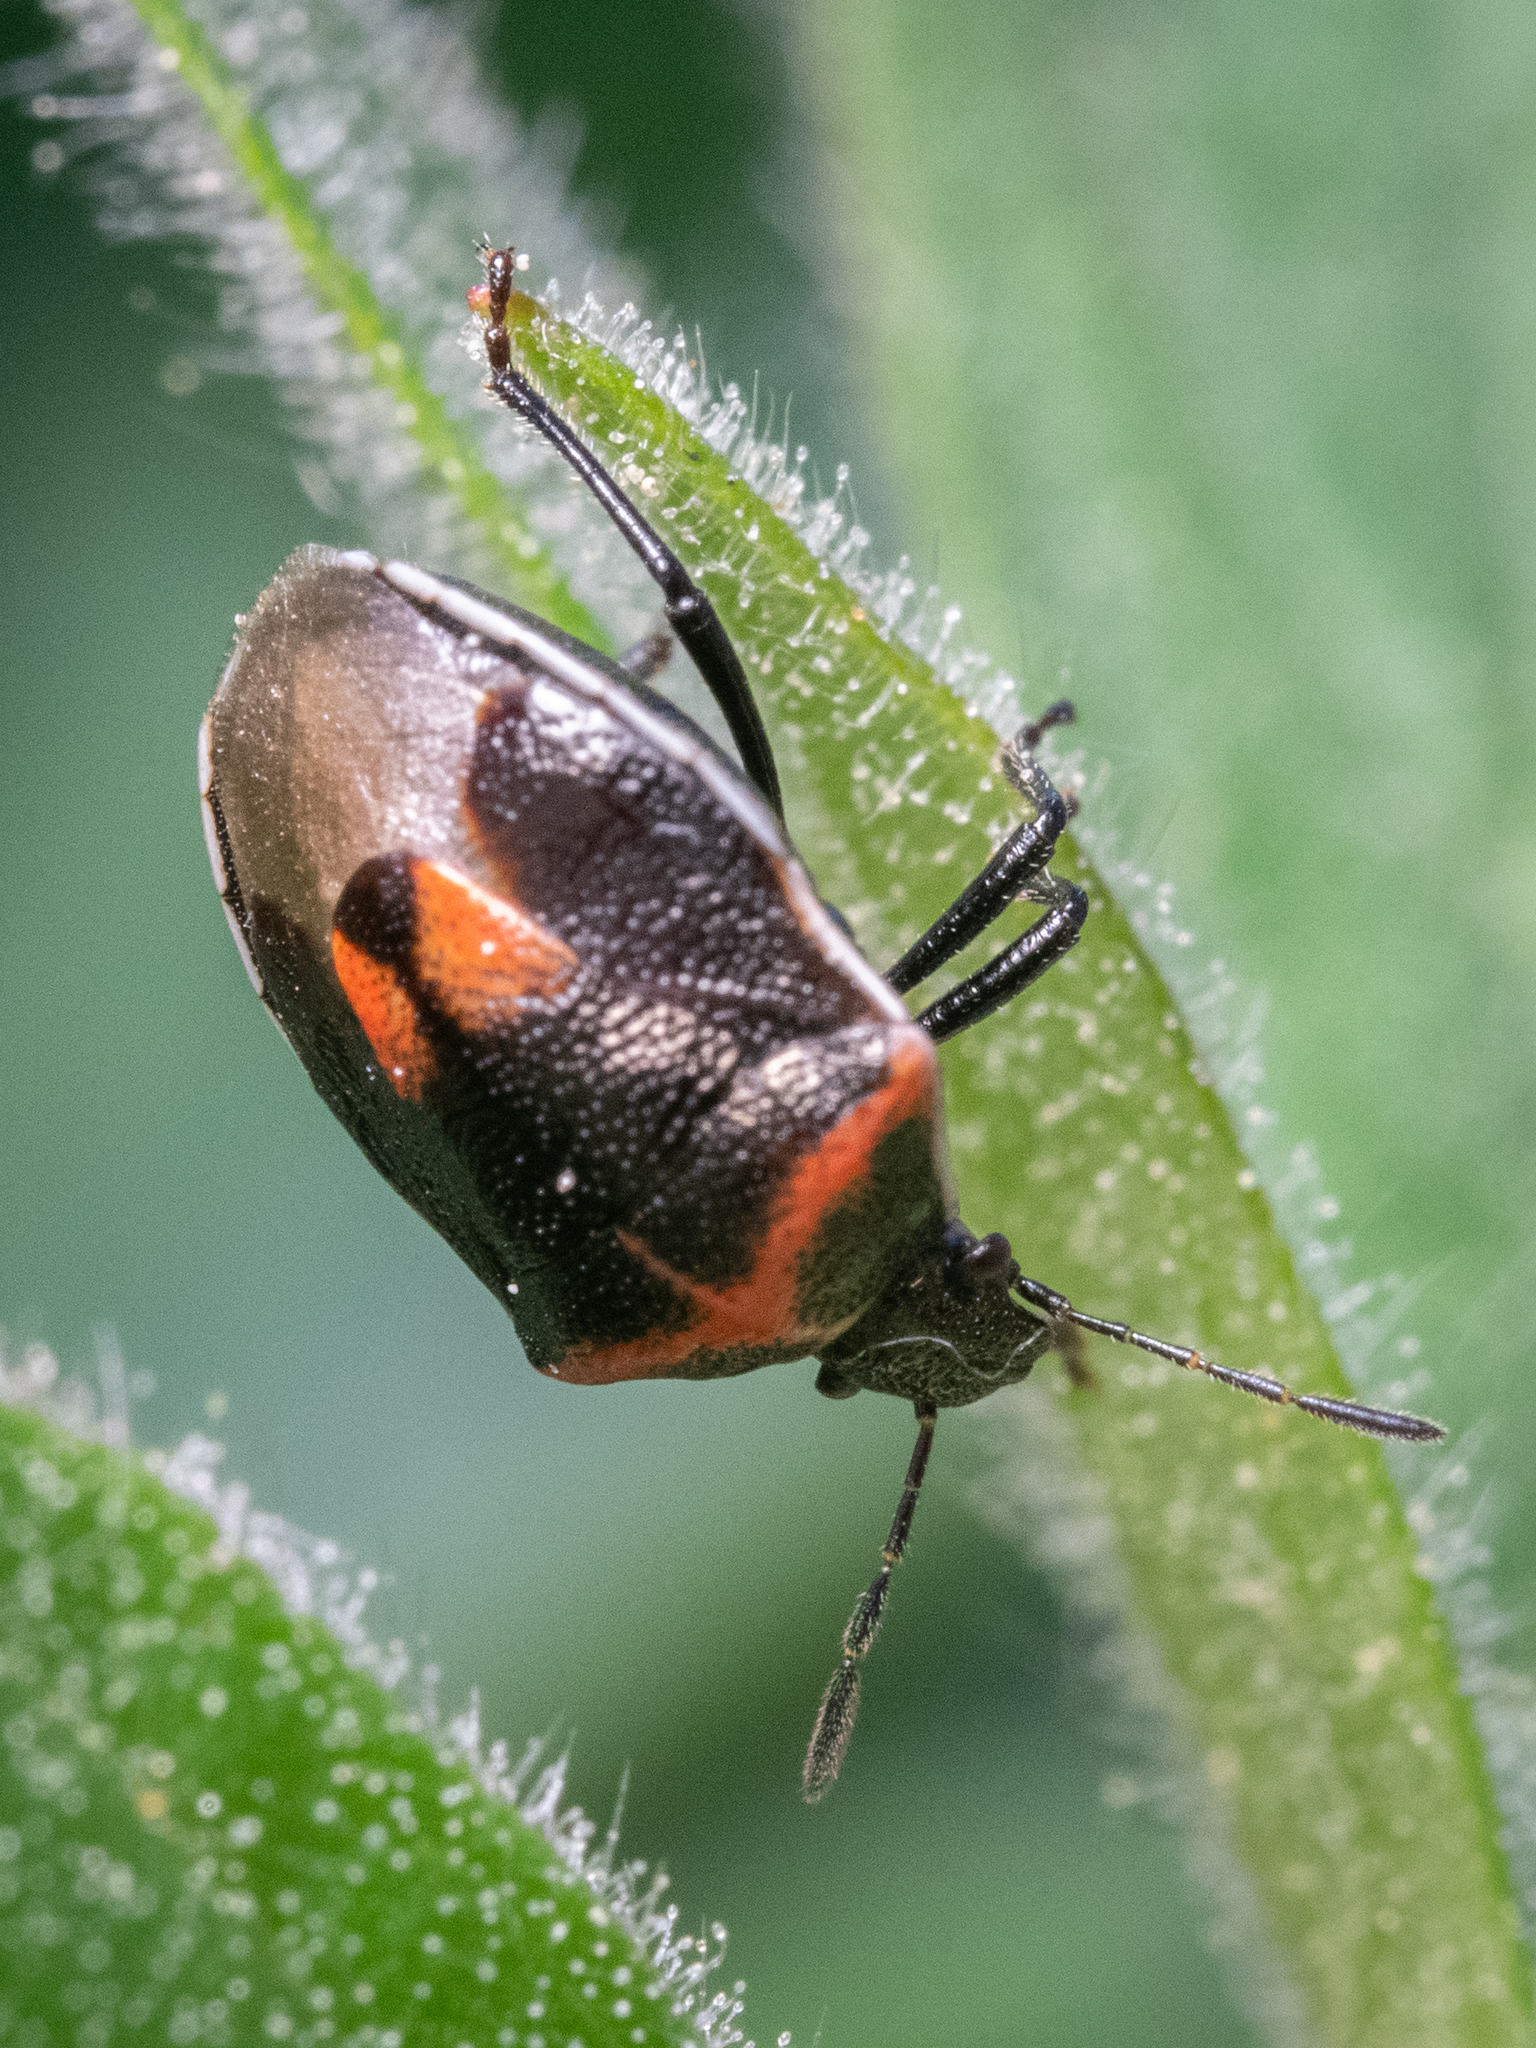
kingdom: Animalia
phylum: Arthropoda
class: Insecta
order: Hemiptera
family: Pentatomidae
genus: Cosmopepla
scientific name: Cosmopepla lintneriana
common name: Twice-stabbed stink bug
